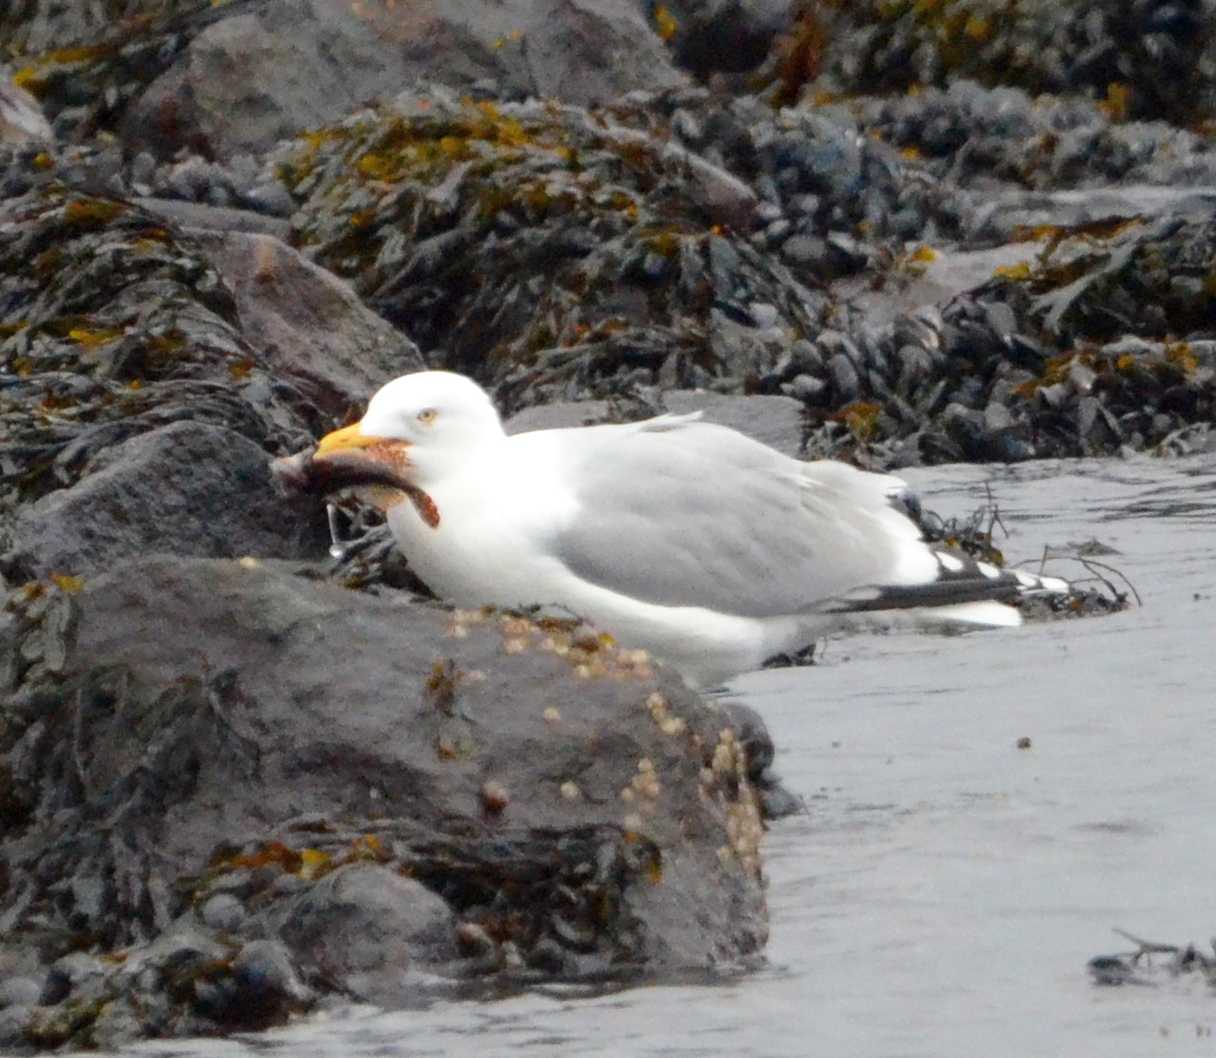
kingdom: Animalia
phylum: Chordata
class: Aves
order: Charadriiformes
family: Laridae
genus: Larus
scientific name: Larus argentatus
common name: Herring gull
